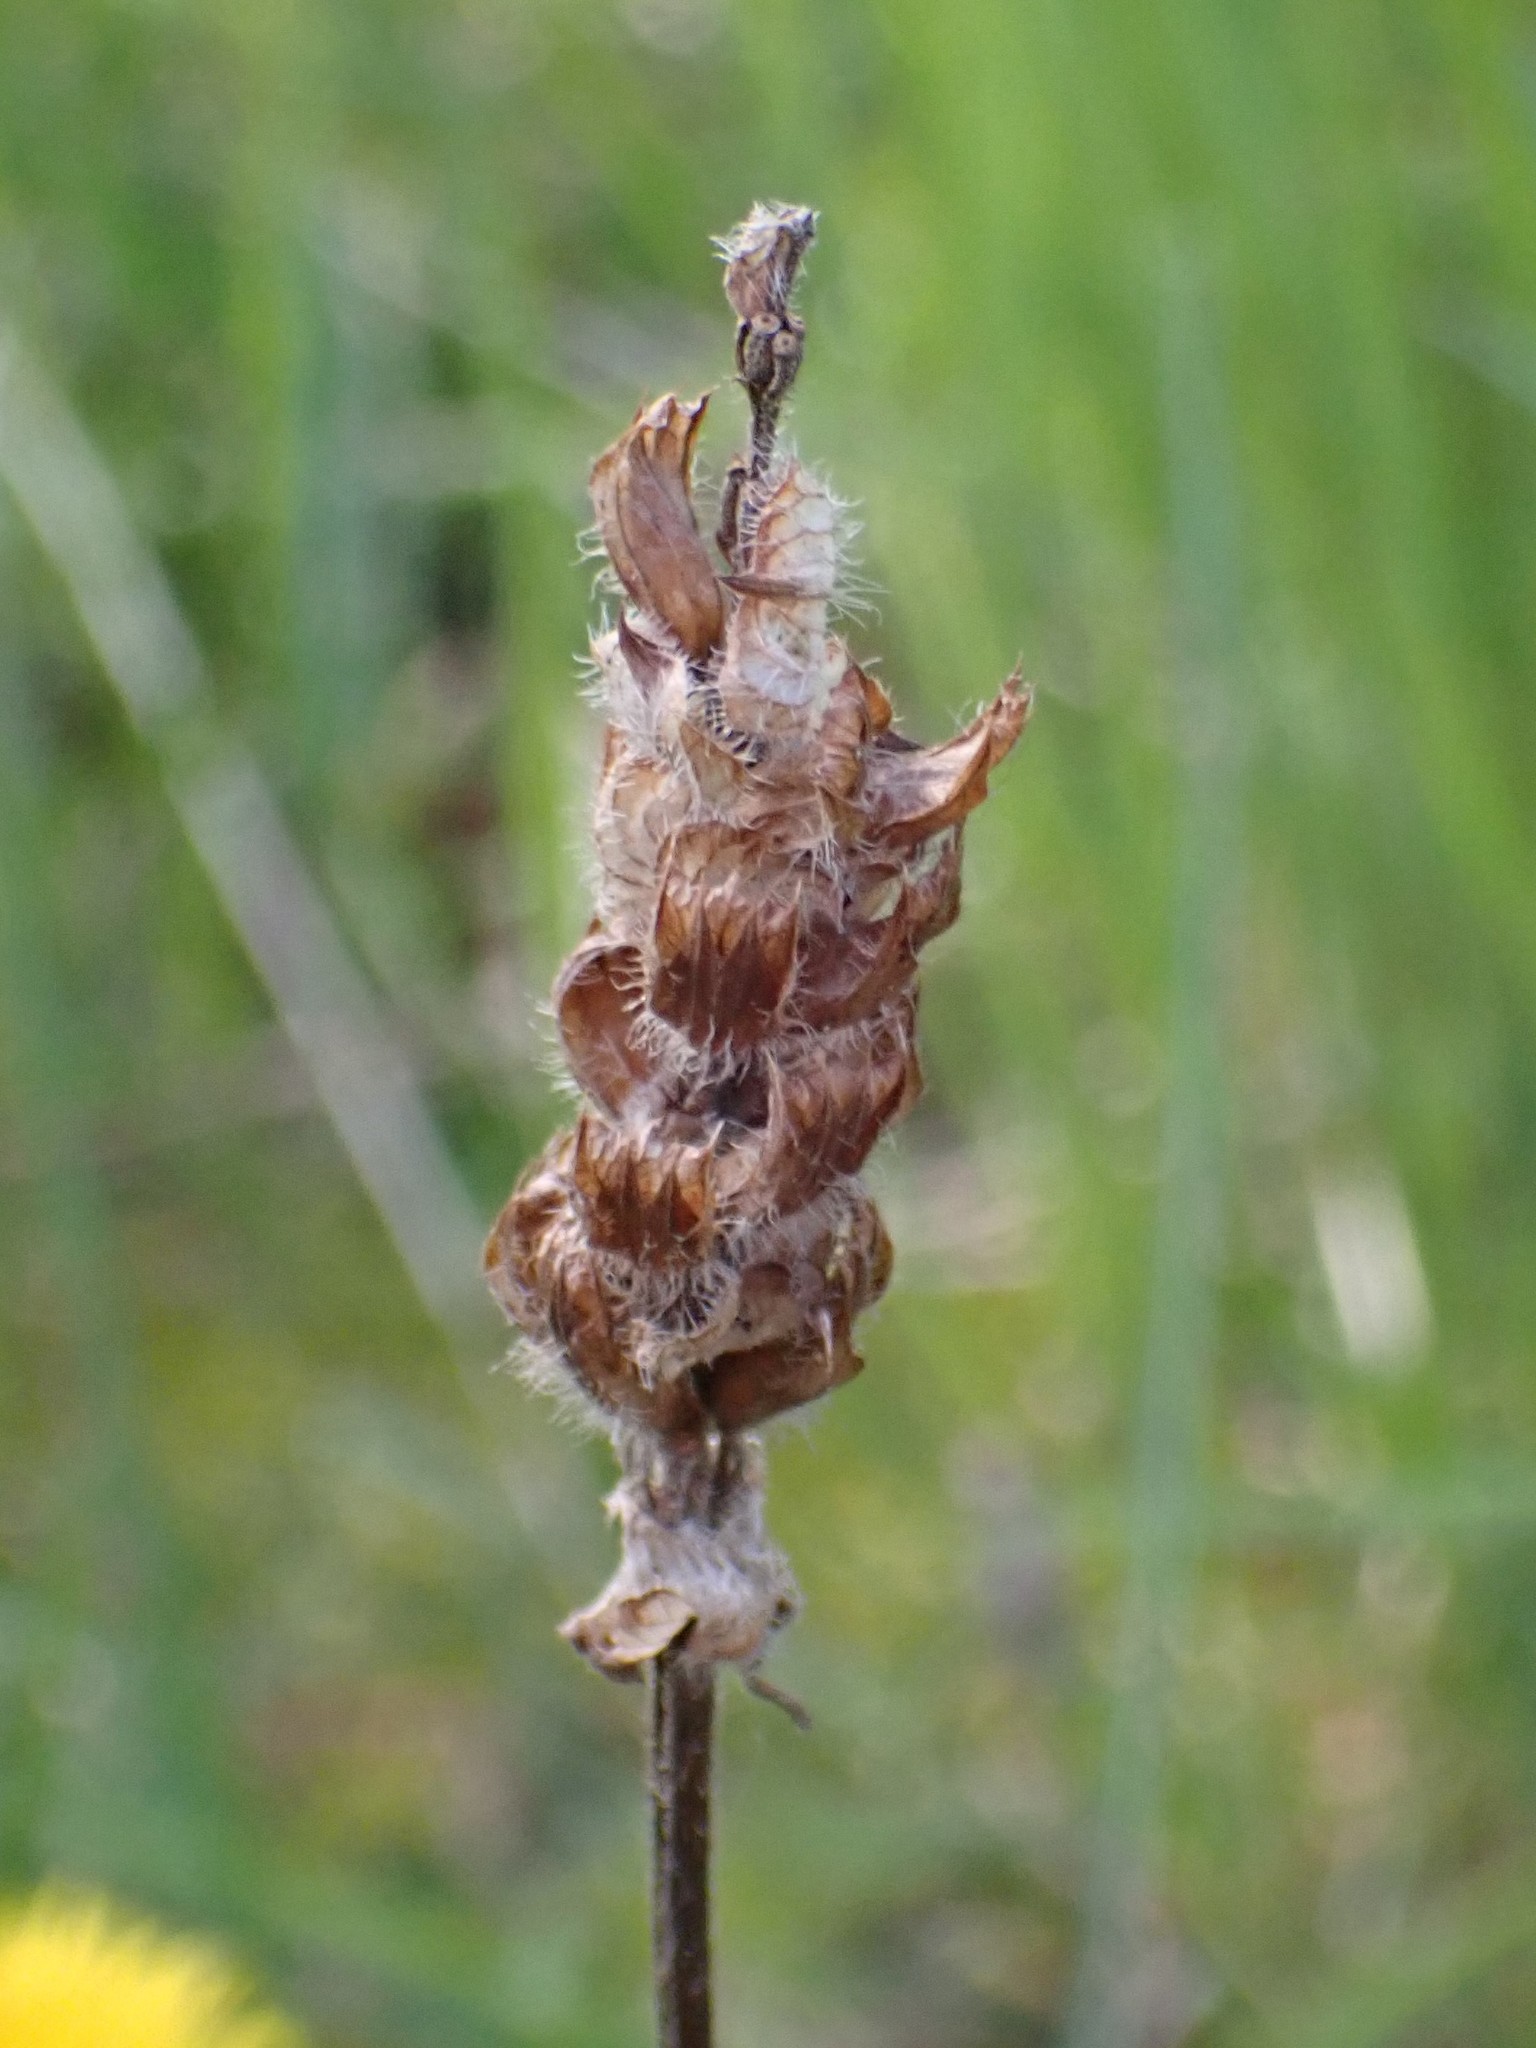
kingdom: Plantae
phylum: Tracheophyta
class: Magnoliopsida
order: Lamiales
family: Lamiaceae
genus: Prunella
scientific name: Prunella vulgaris
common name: Heal-all
